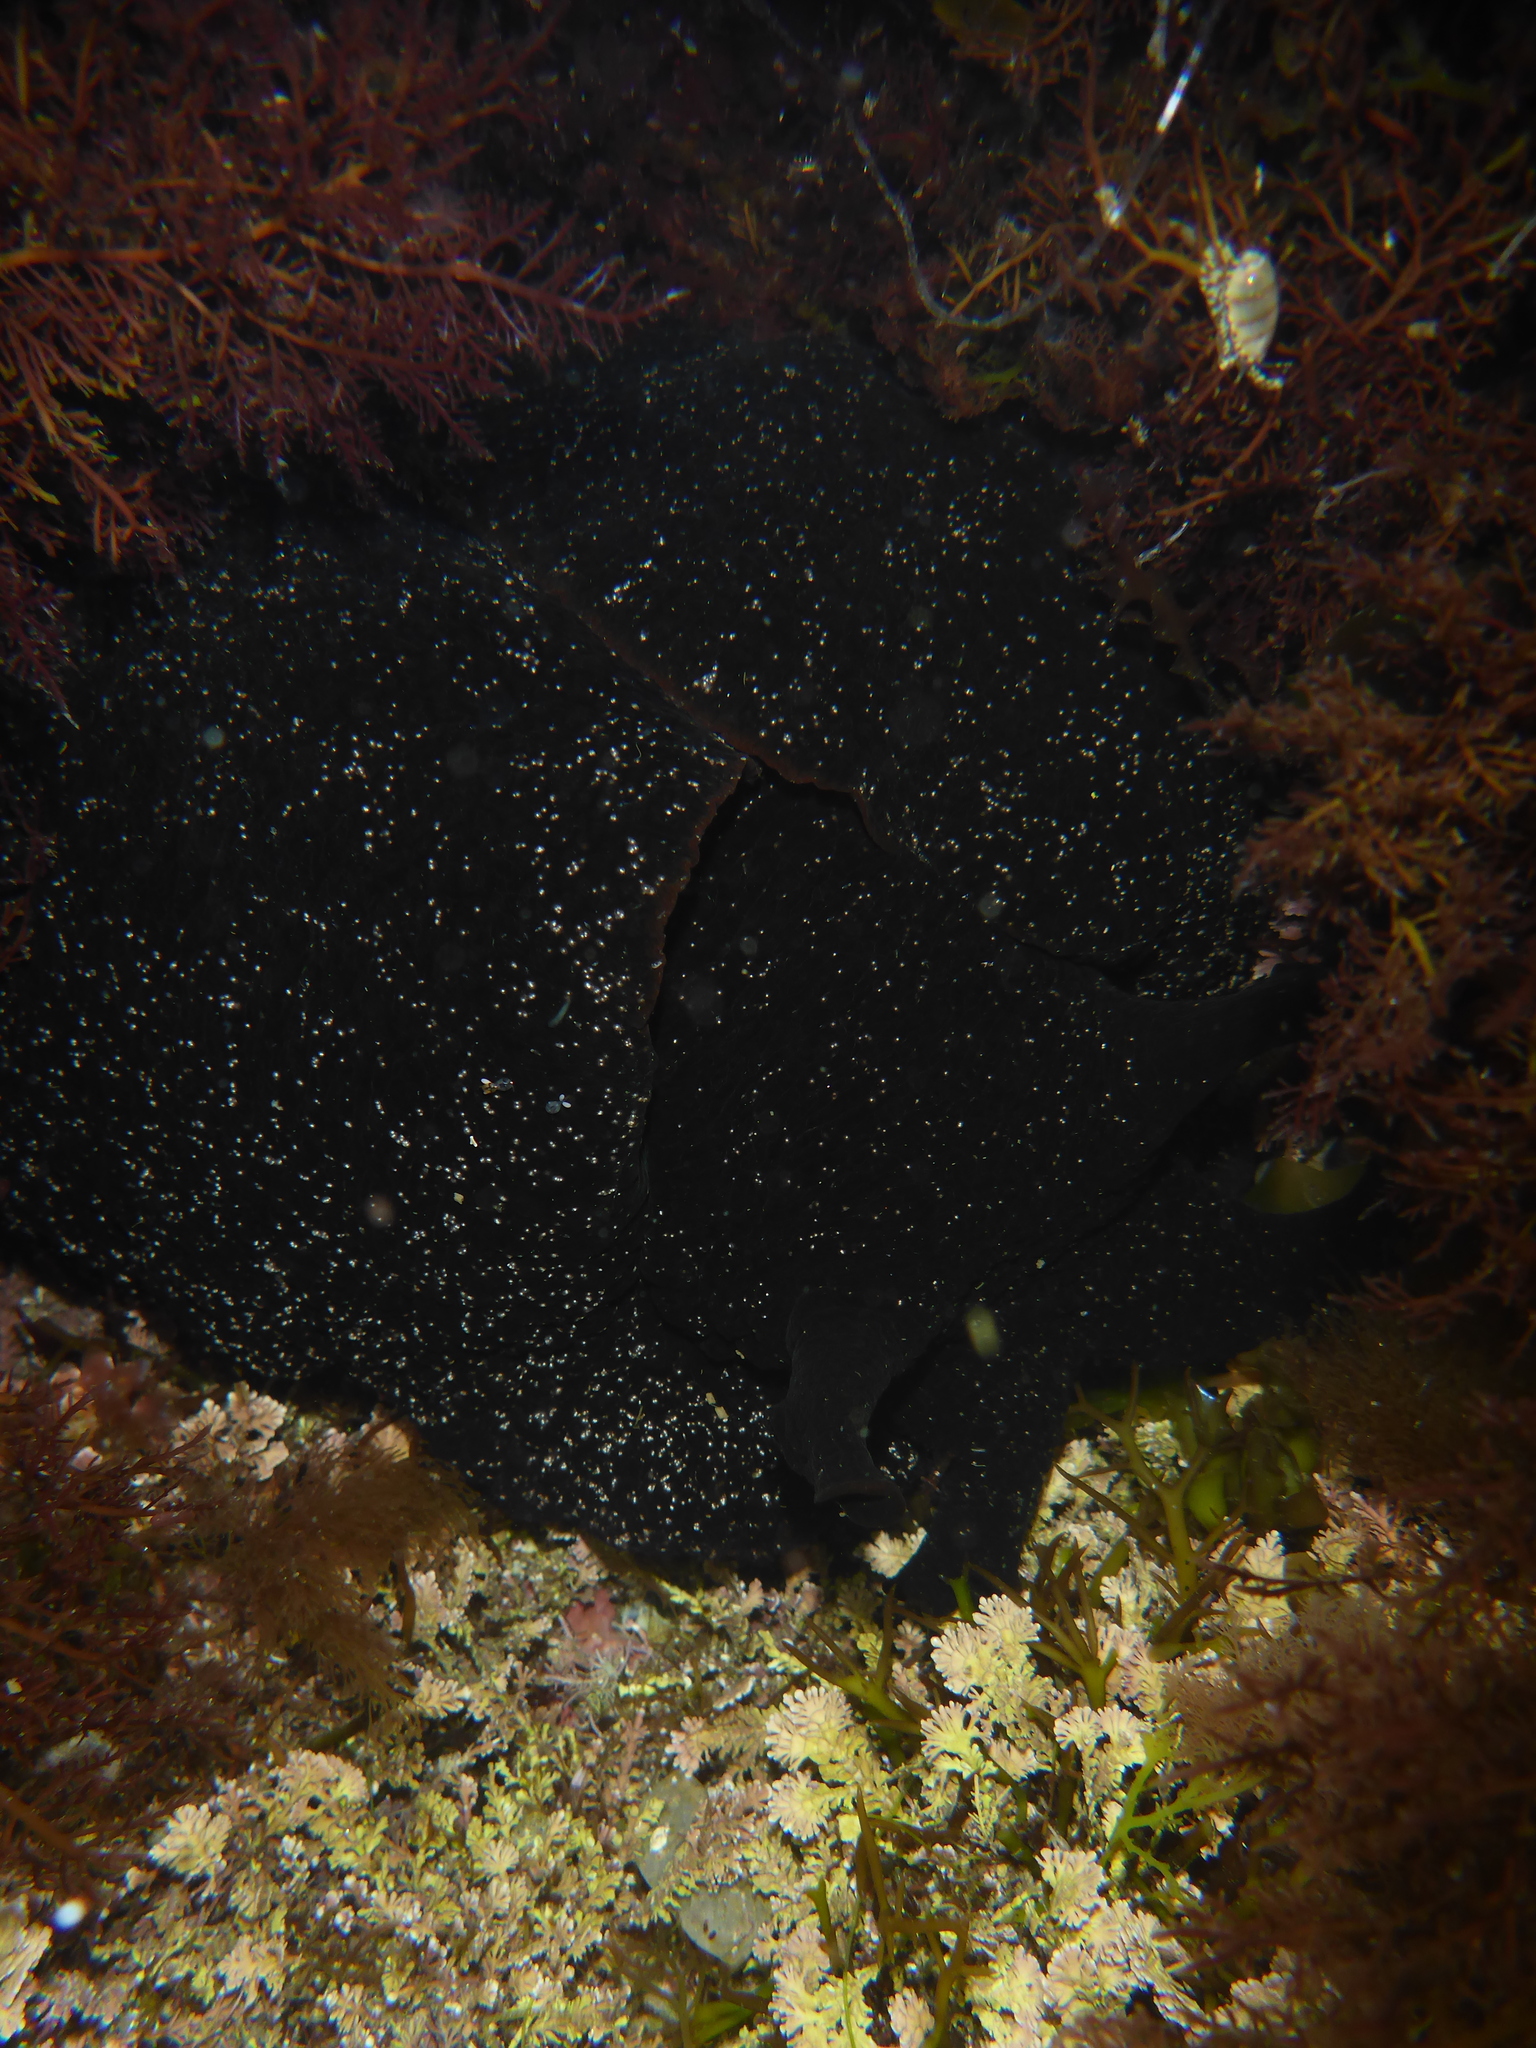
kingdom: Animalia
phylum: Mollusca
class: Gastropoda
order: Aplysiida
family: Aplysiidae
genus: Aplysia
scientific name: Aplysia vaccaria
